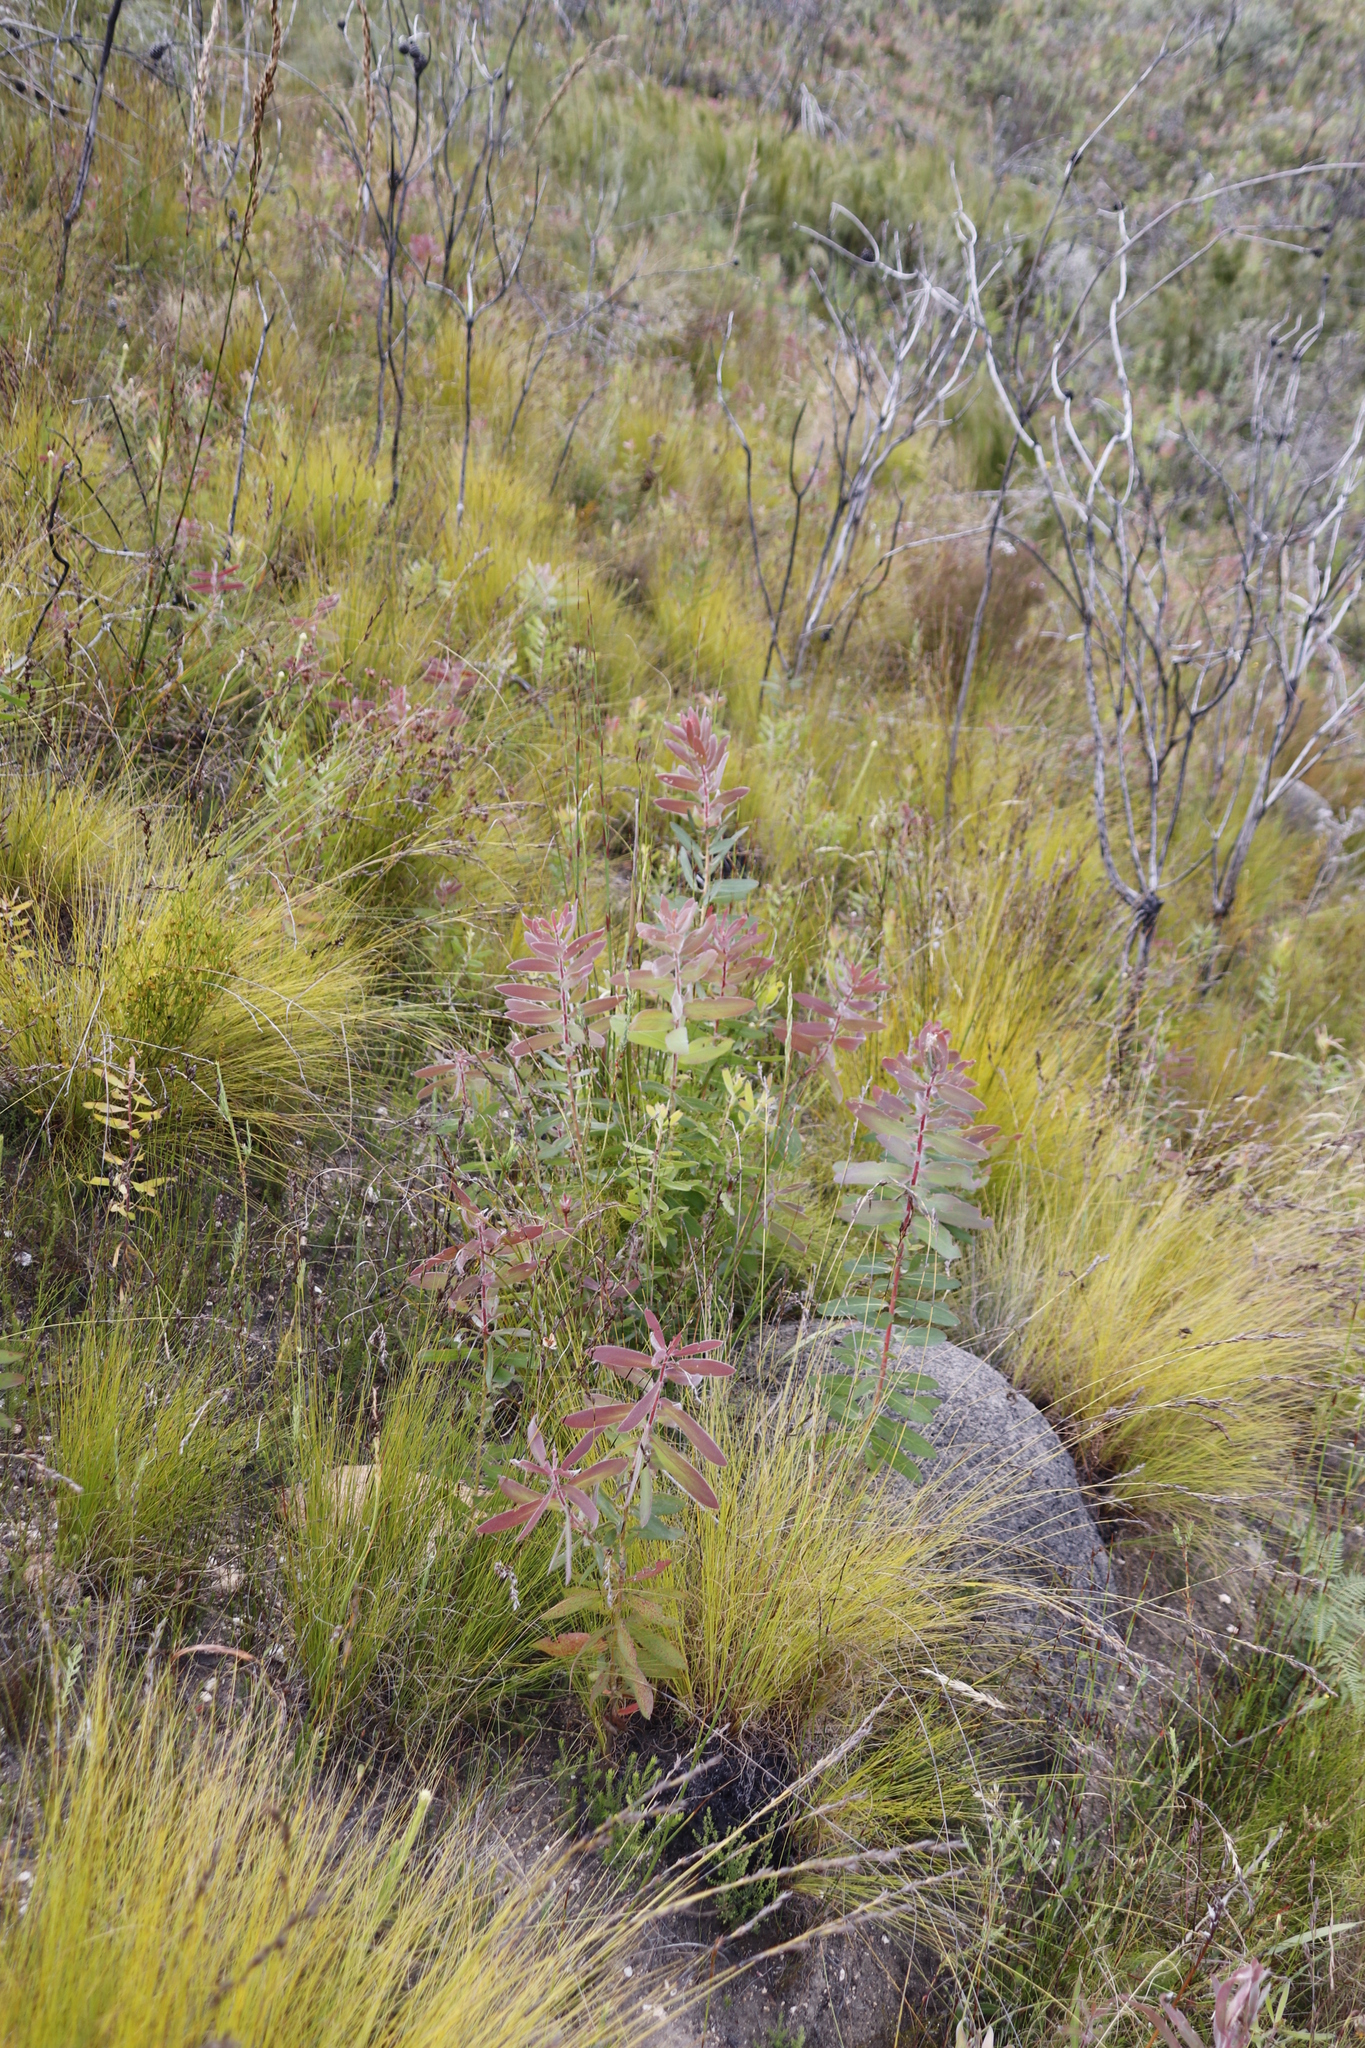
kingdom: Animalia
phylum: Arthropoda
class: Insecta
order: Blattodea
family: Termitidae
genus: Amitermes
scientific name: Amitermes hastatus
